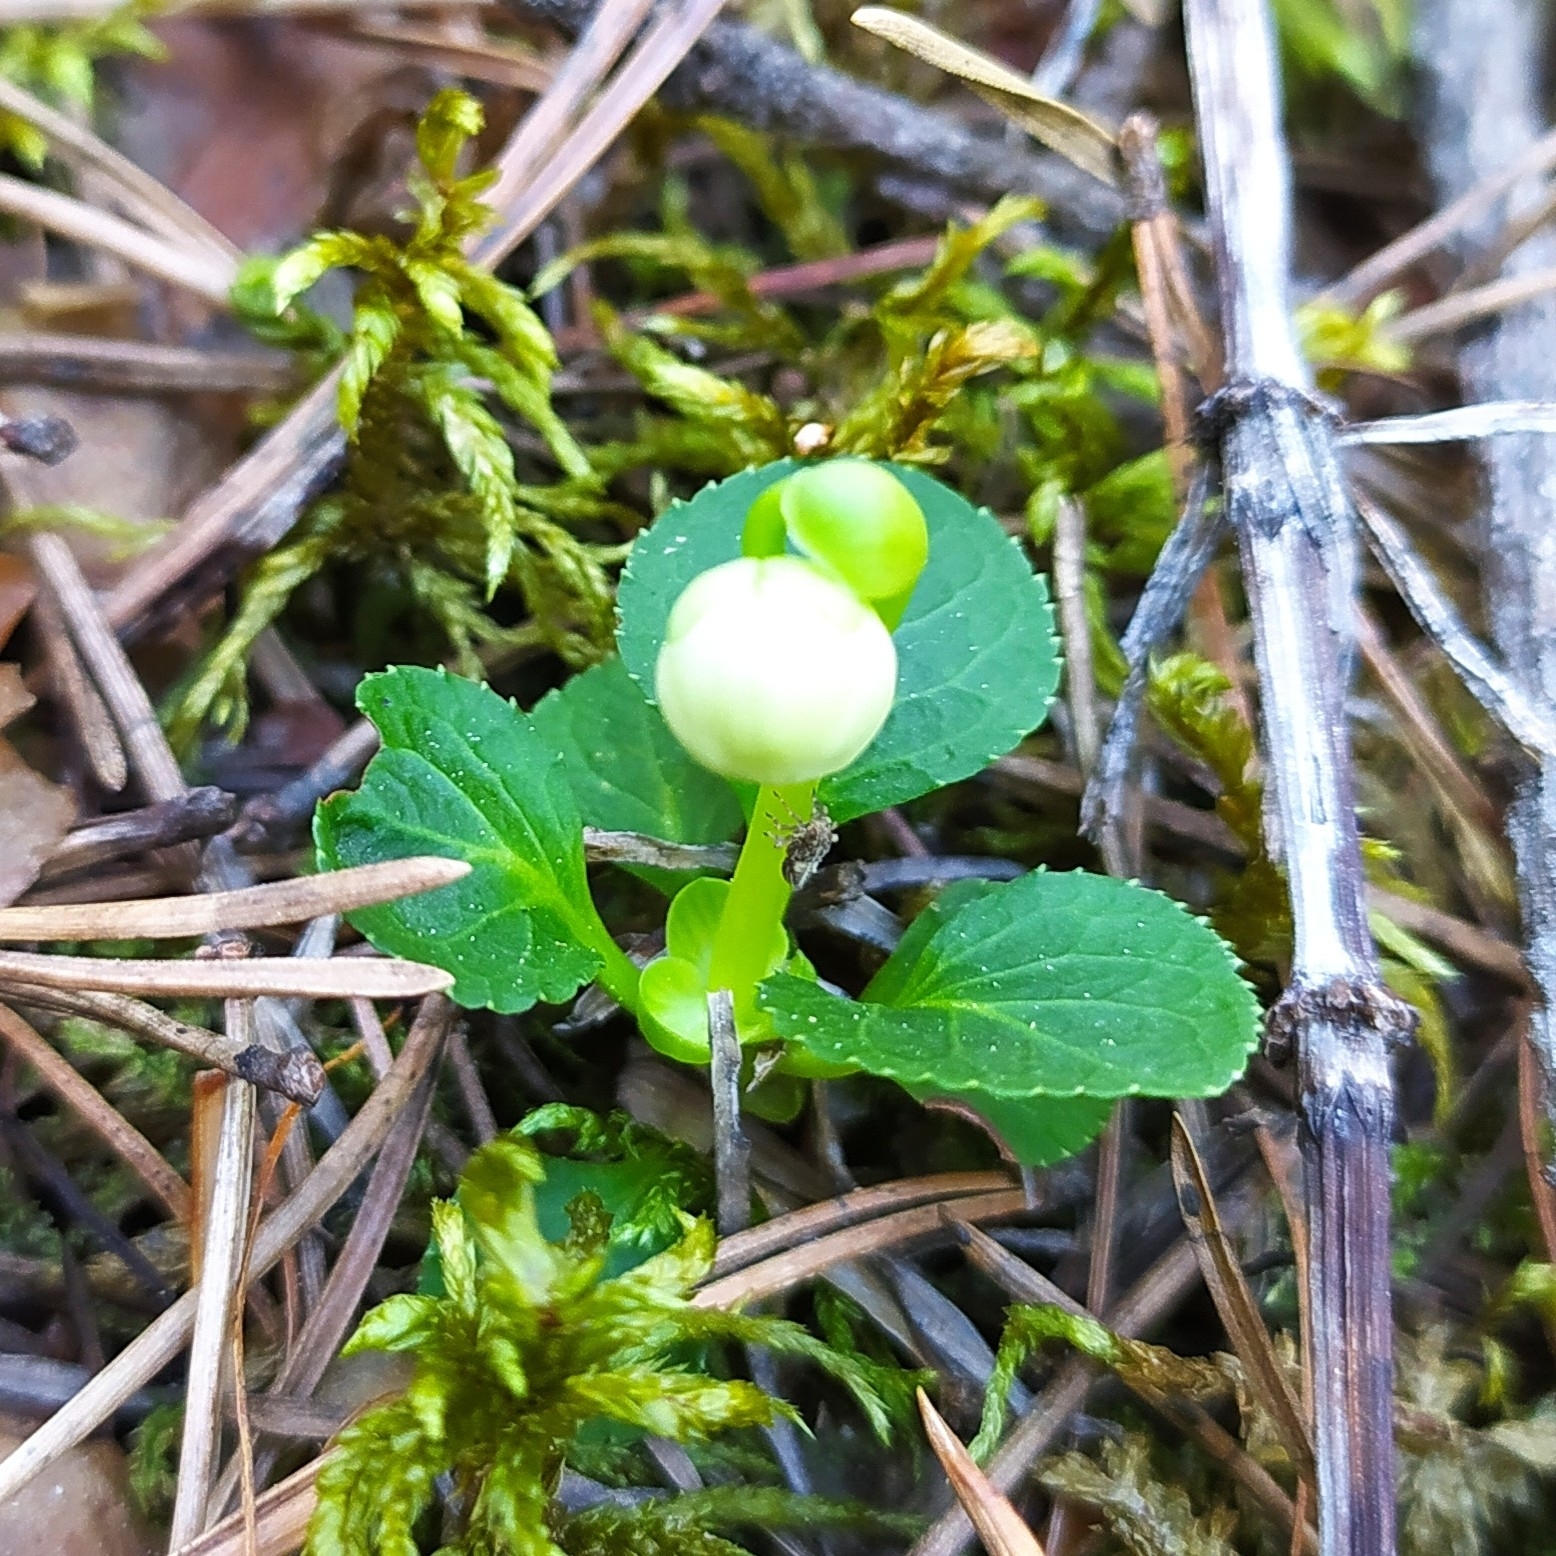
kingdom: Plantae
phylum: Tracheophyta
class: Magnoliopsida
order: Ericales
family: Ericaceae
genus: Moneses
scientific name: Moneses uniflora
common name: One-flowered wintergreen
